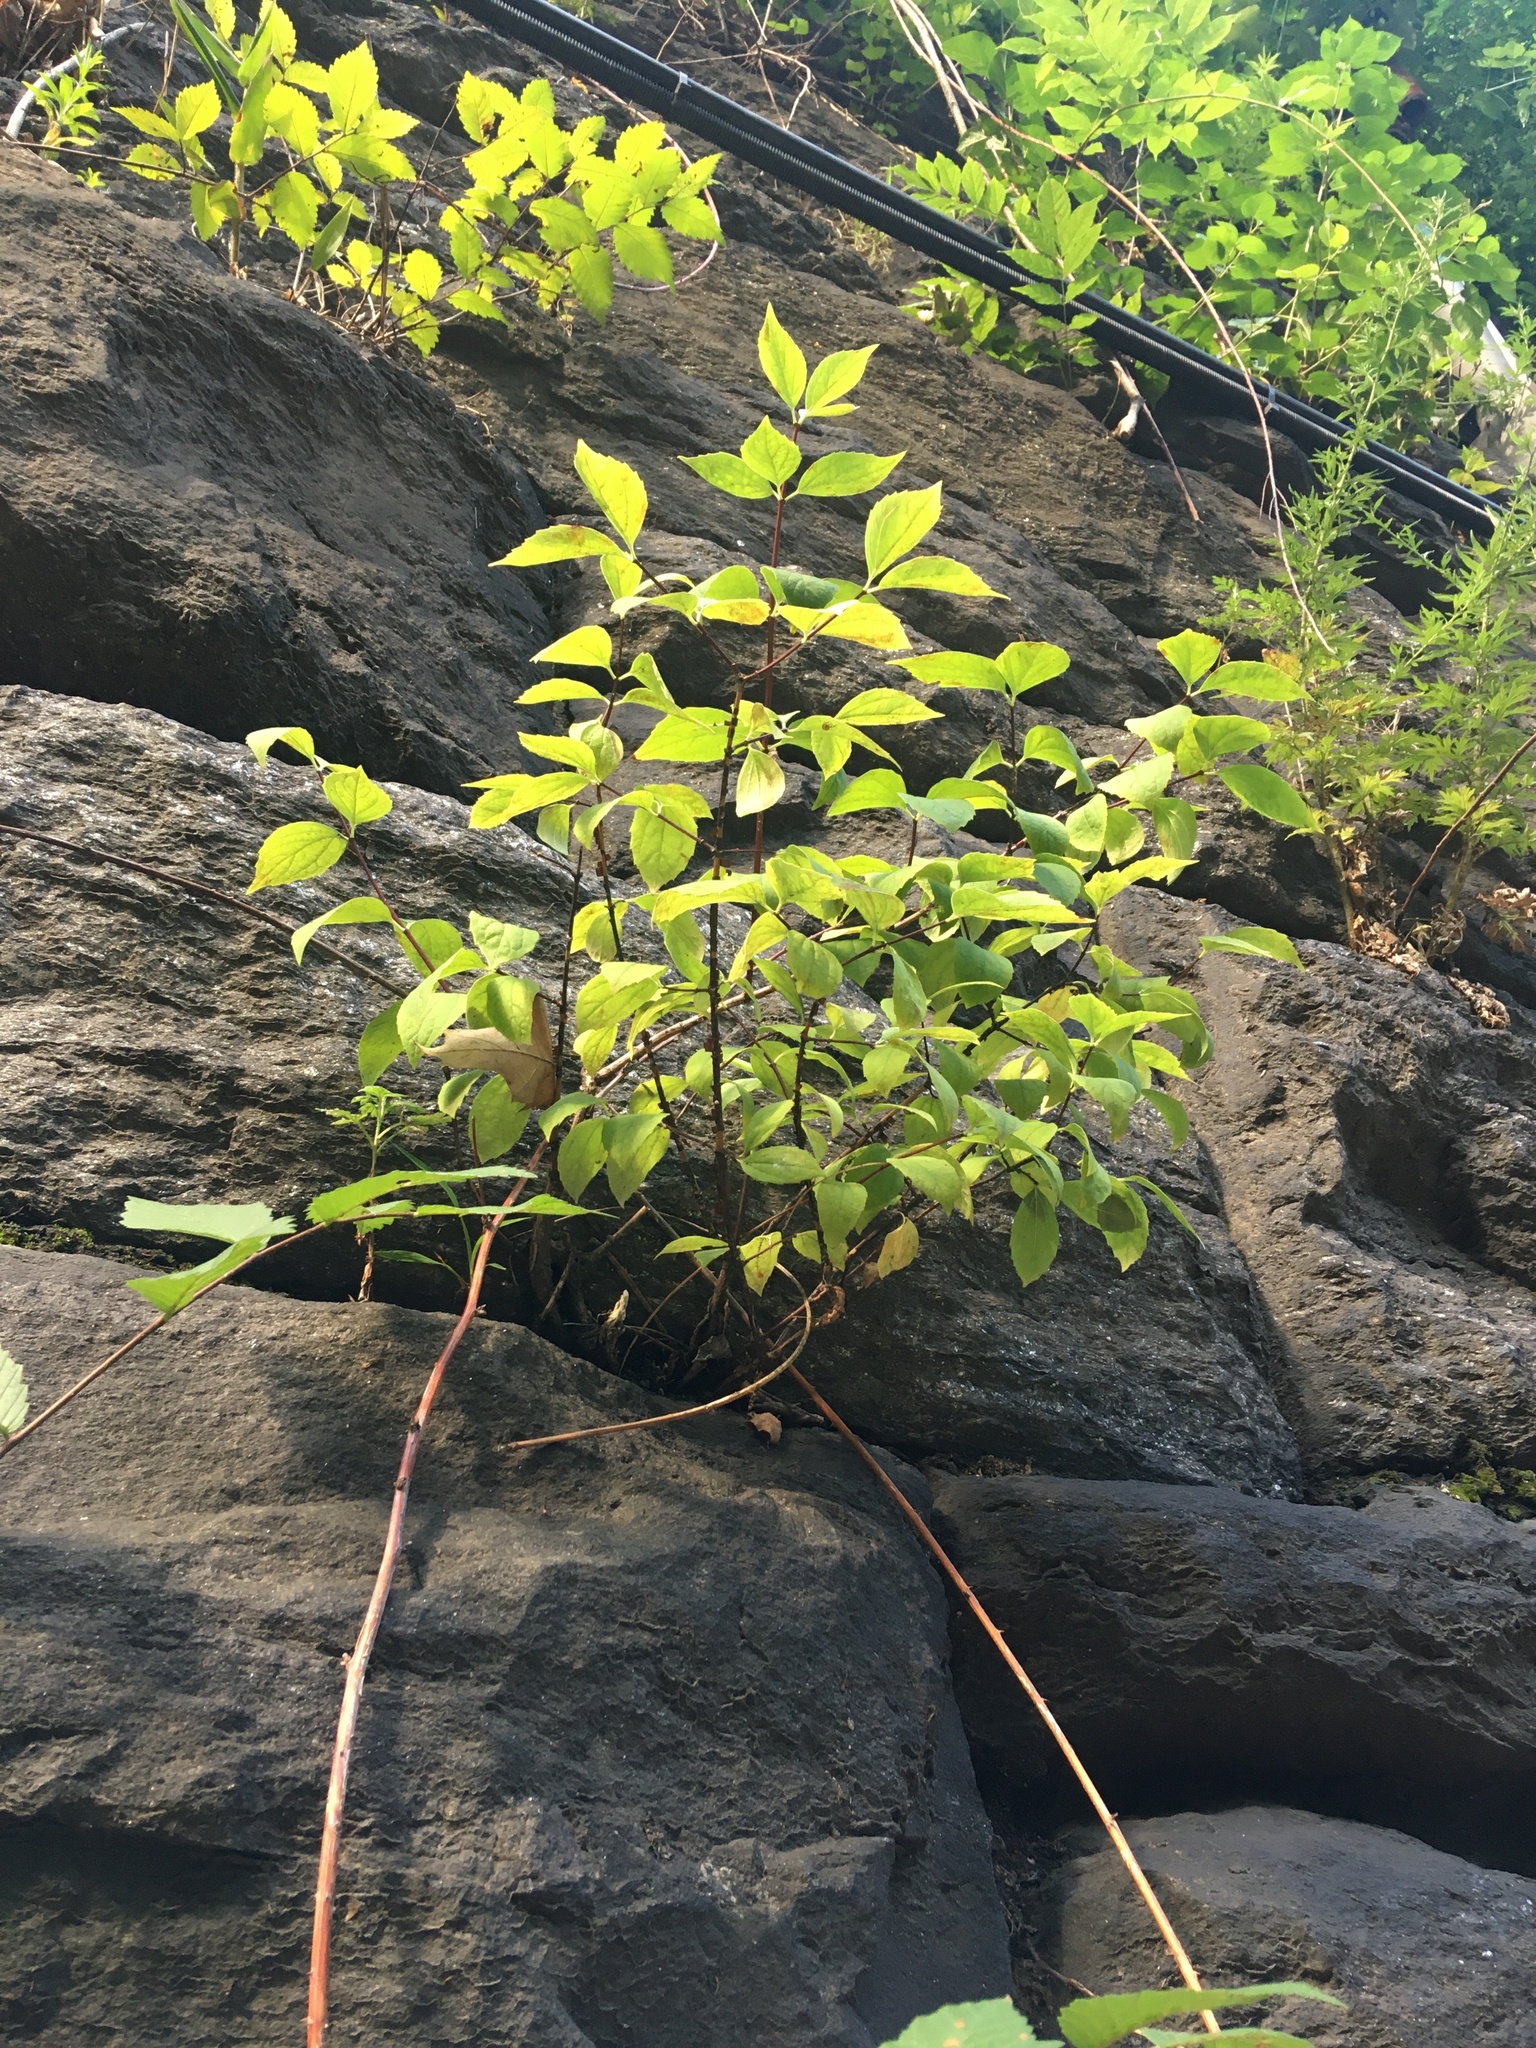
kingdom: Plantae
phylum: Tracheophyta
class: Magnoliopsida
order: Cornales
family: Cornaceae
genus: Cornus
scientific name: Cornus racemosa
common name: Panicled dogwood
